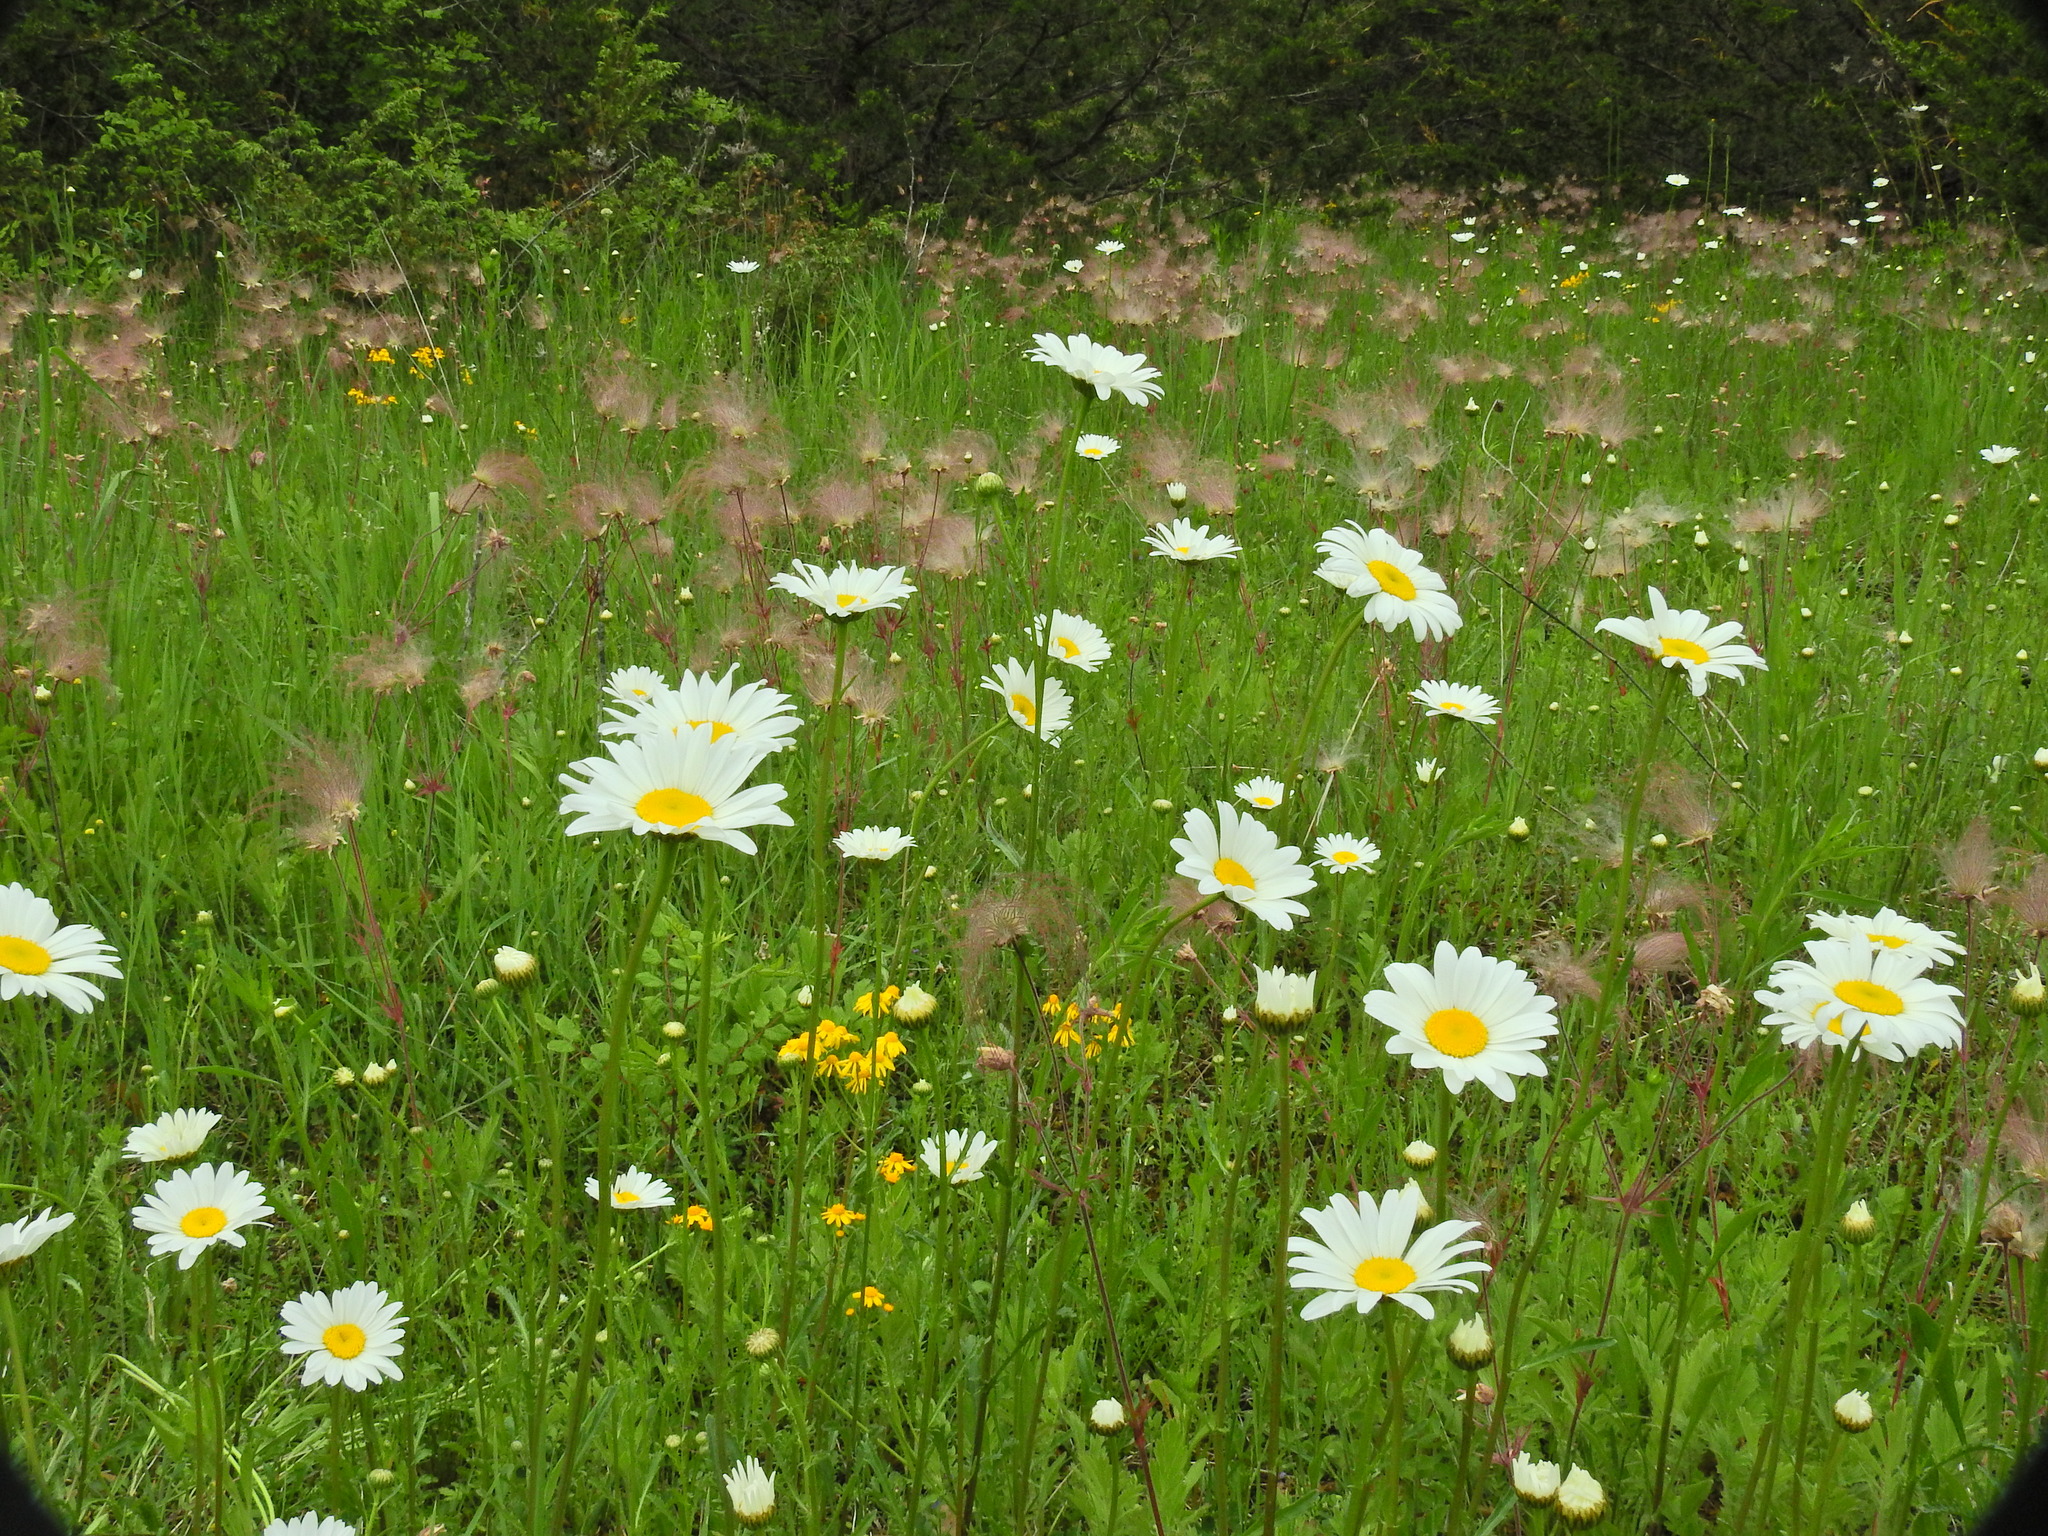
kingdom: Plantae
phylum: Tracheophyta
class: Magnoliopsida
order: Rosales
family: Rosaceae
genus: Geum
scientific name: Geum triflorum
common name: Old man's whiskers
